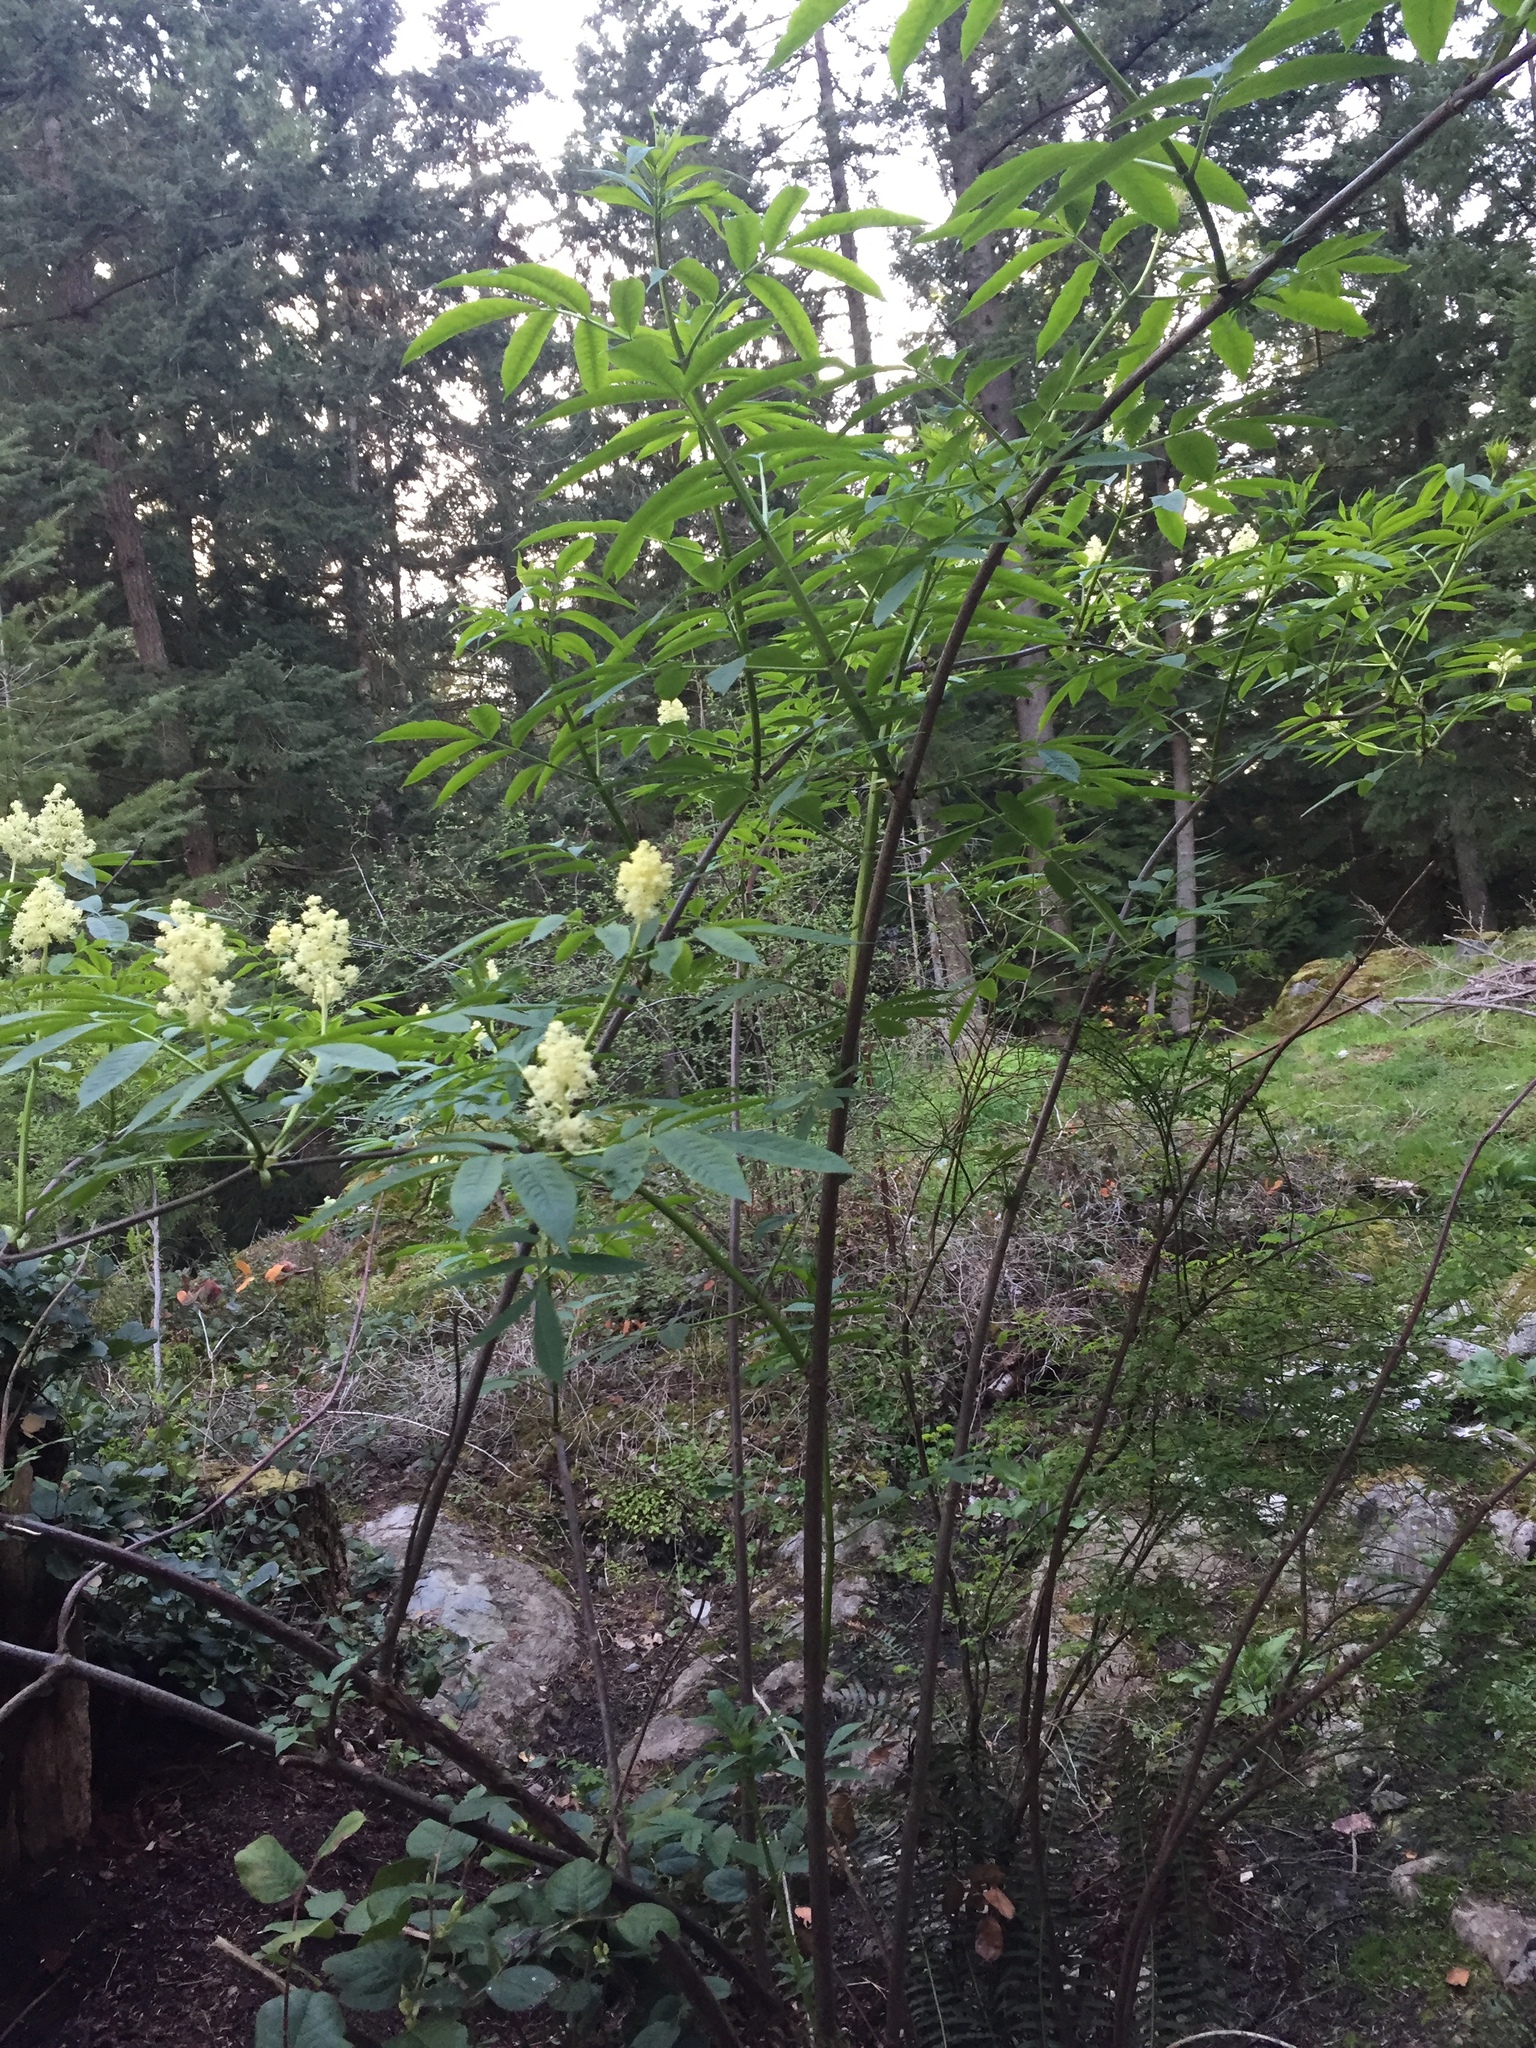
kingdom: Plantae
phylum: Tracheophyta
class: Magnoliopsida
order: Dipsacales
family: Viburnaceae
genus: Sambucus
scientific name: Sambucus racemosa
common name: Red-berried elder
